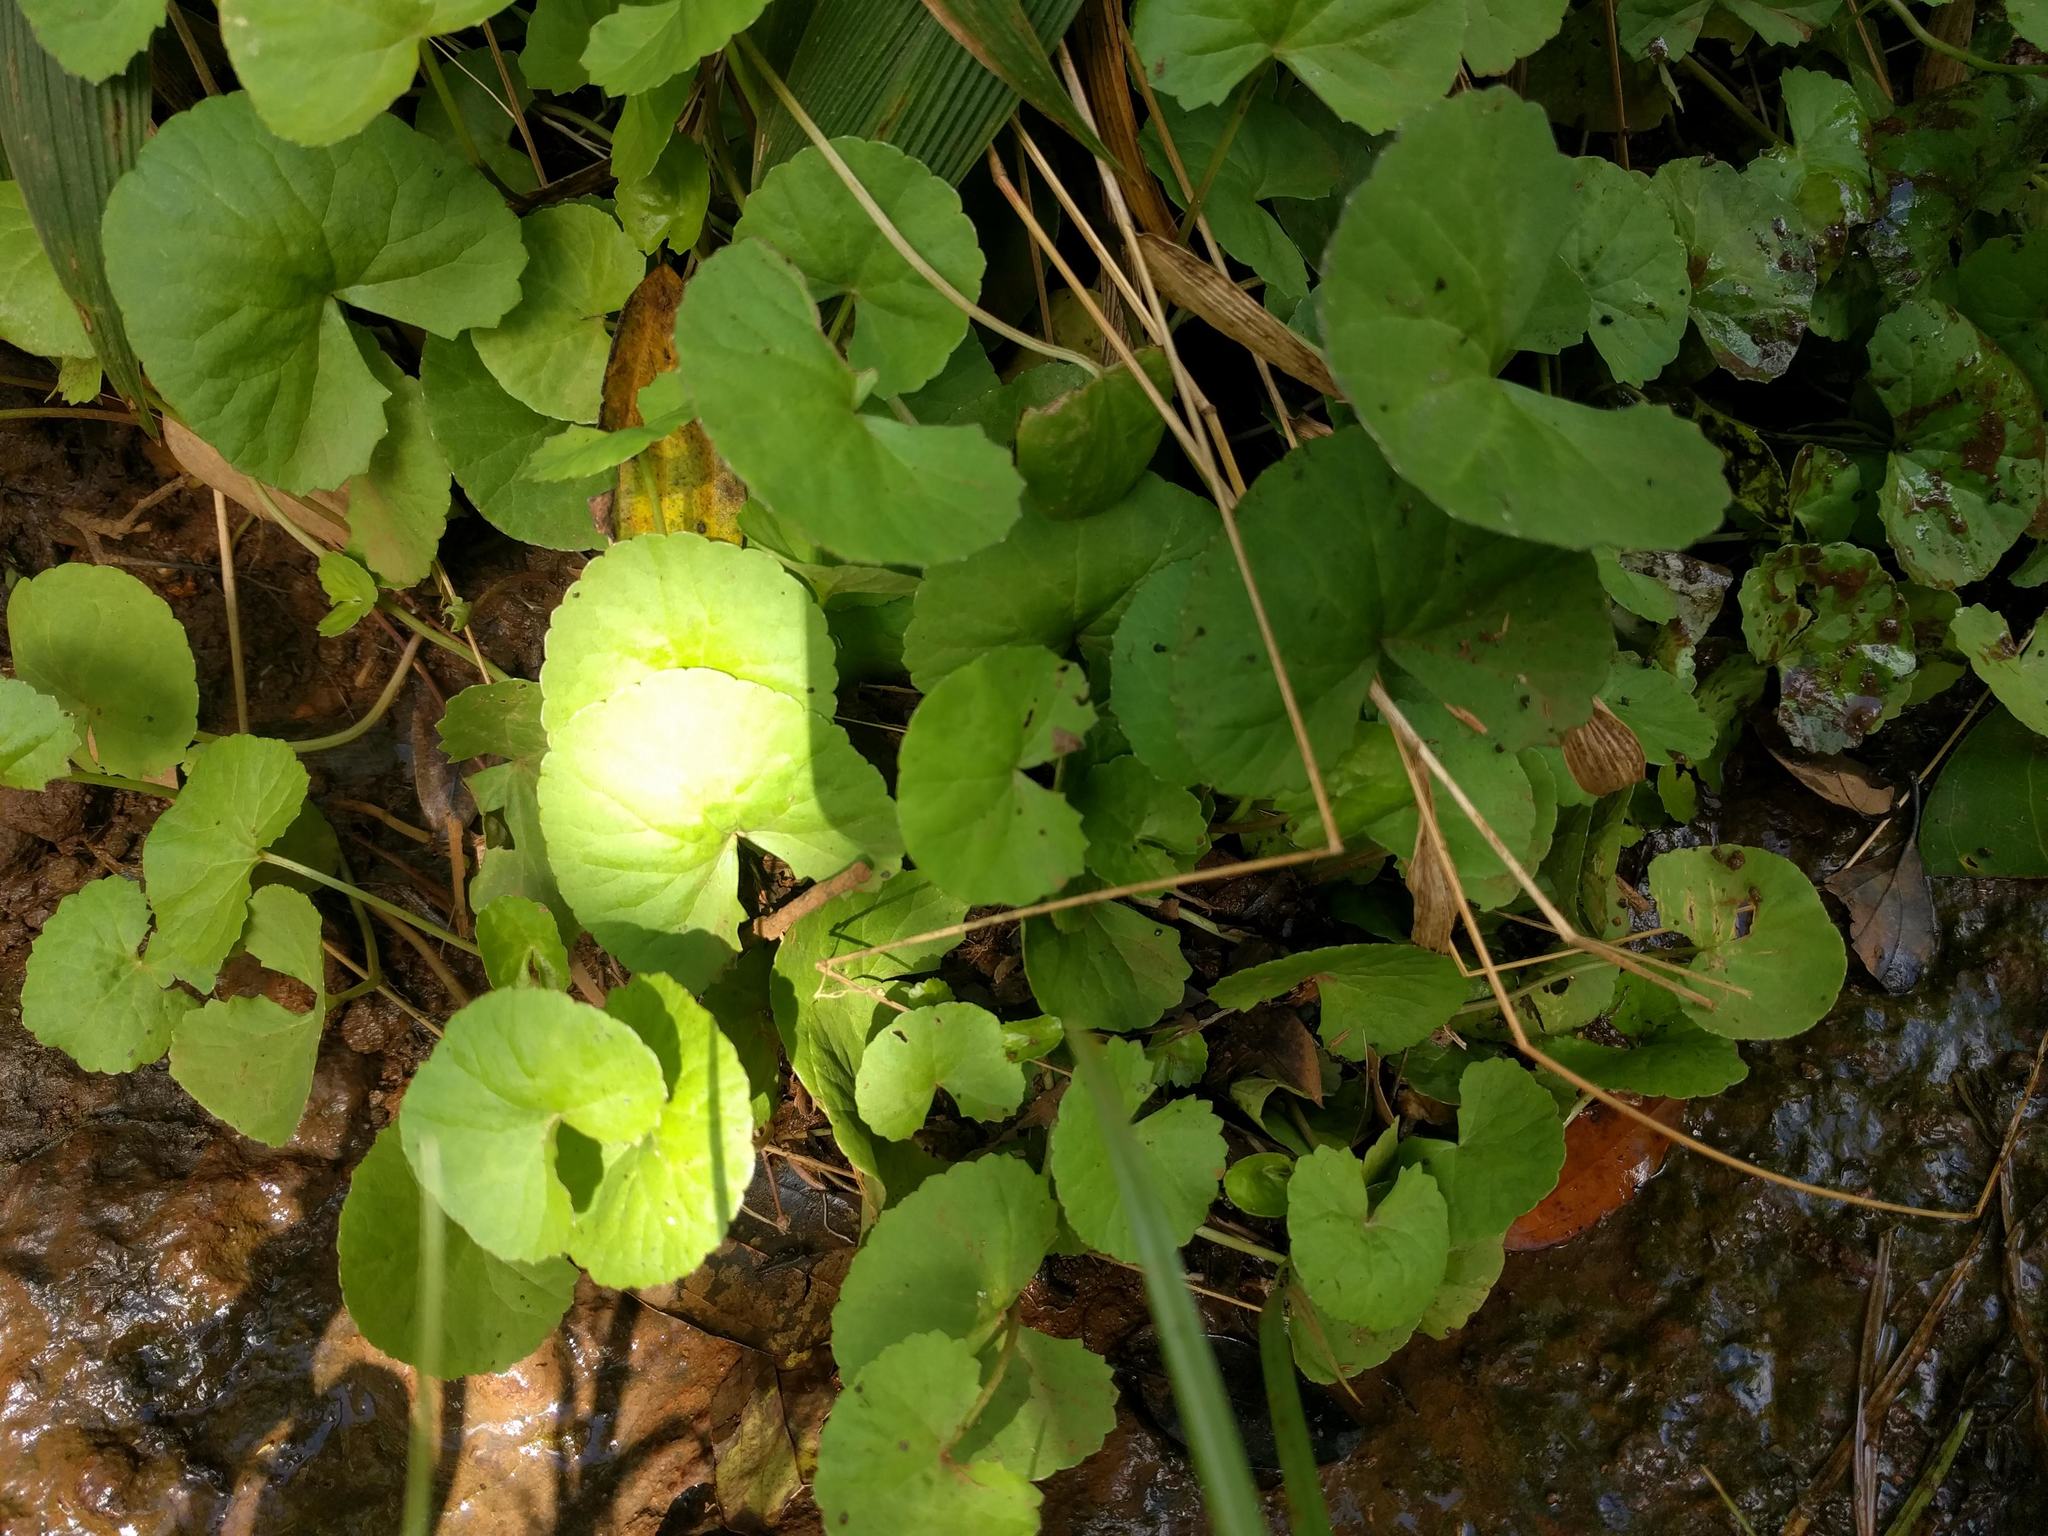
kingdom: Plantae
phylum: Tracheophyta
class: Magnoliopsida
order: Apiales
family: Apiaceae
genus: Centella
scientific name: Centella asiatica
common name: Spadeleaf
